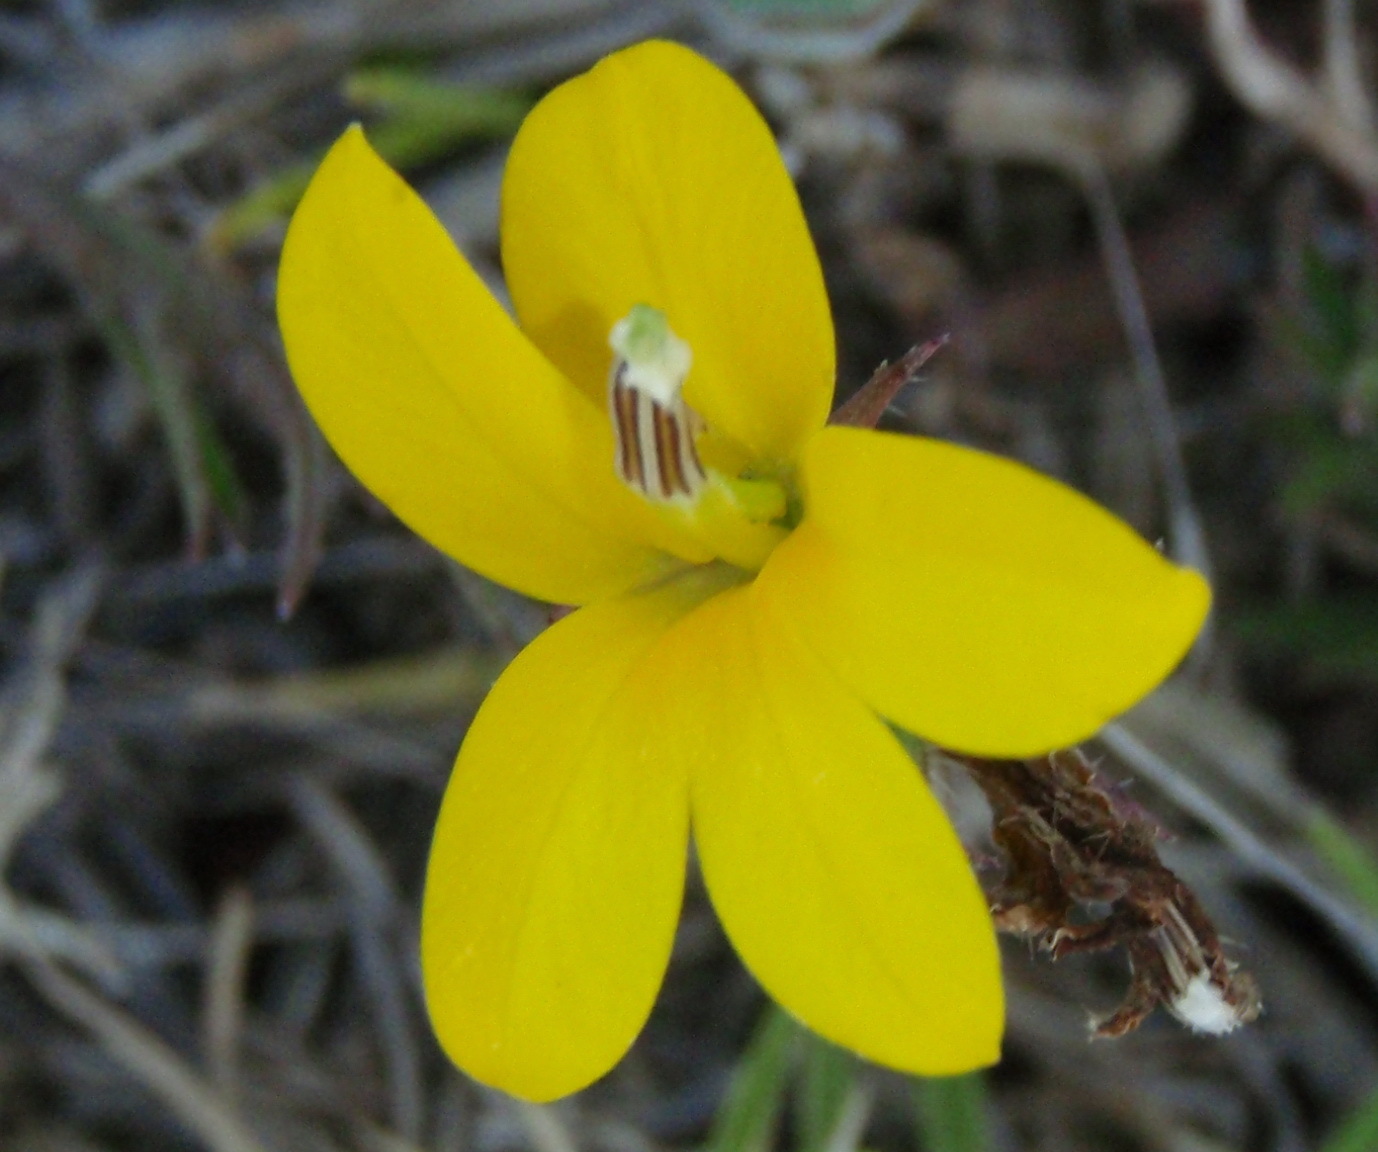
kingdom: Plantae
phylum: Tracheophyta
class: Magnoliopsida
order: Asterales
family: Campanulaceae
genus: Monopsis
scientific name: Monopsis lutea
